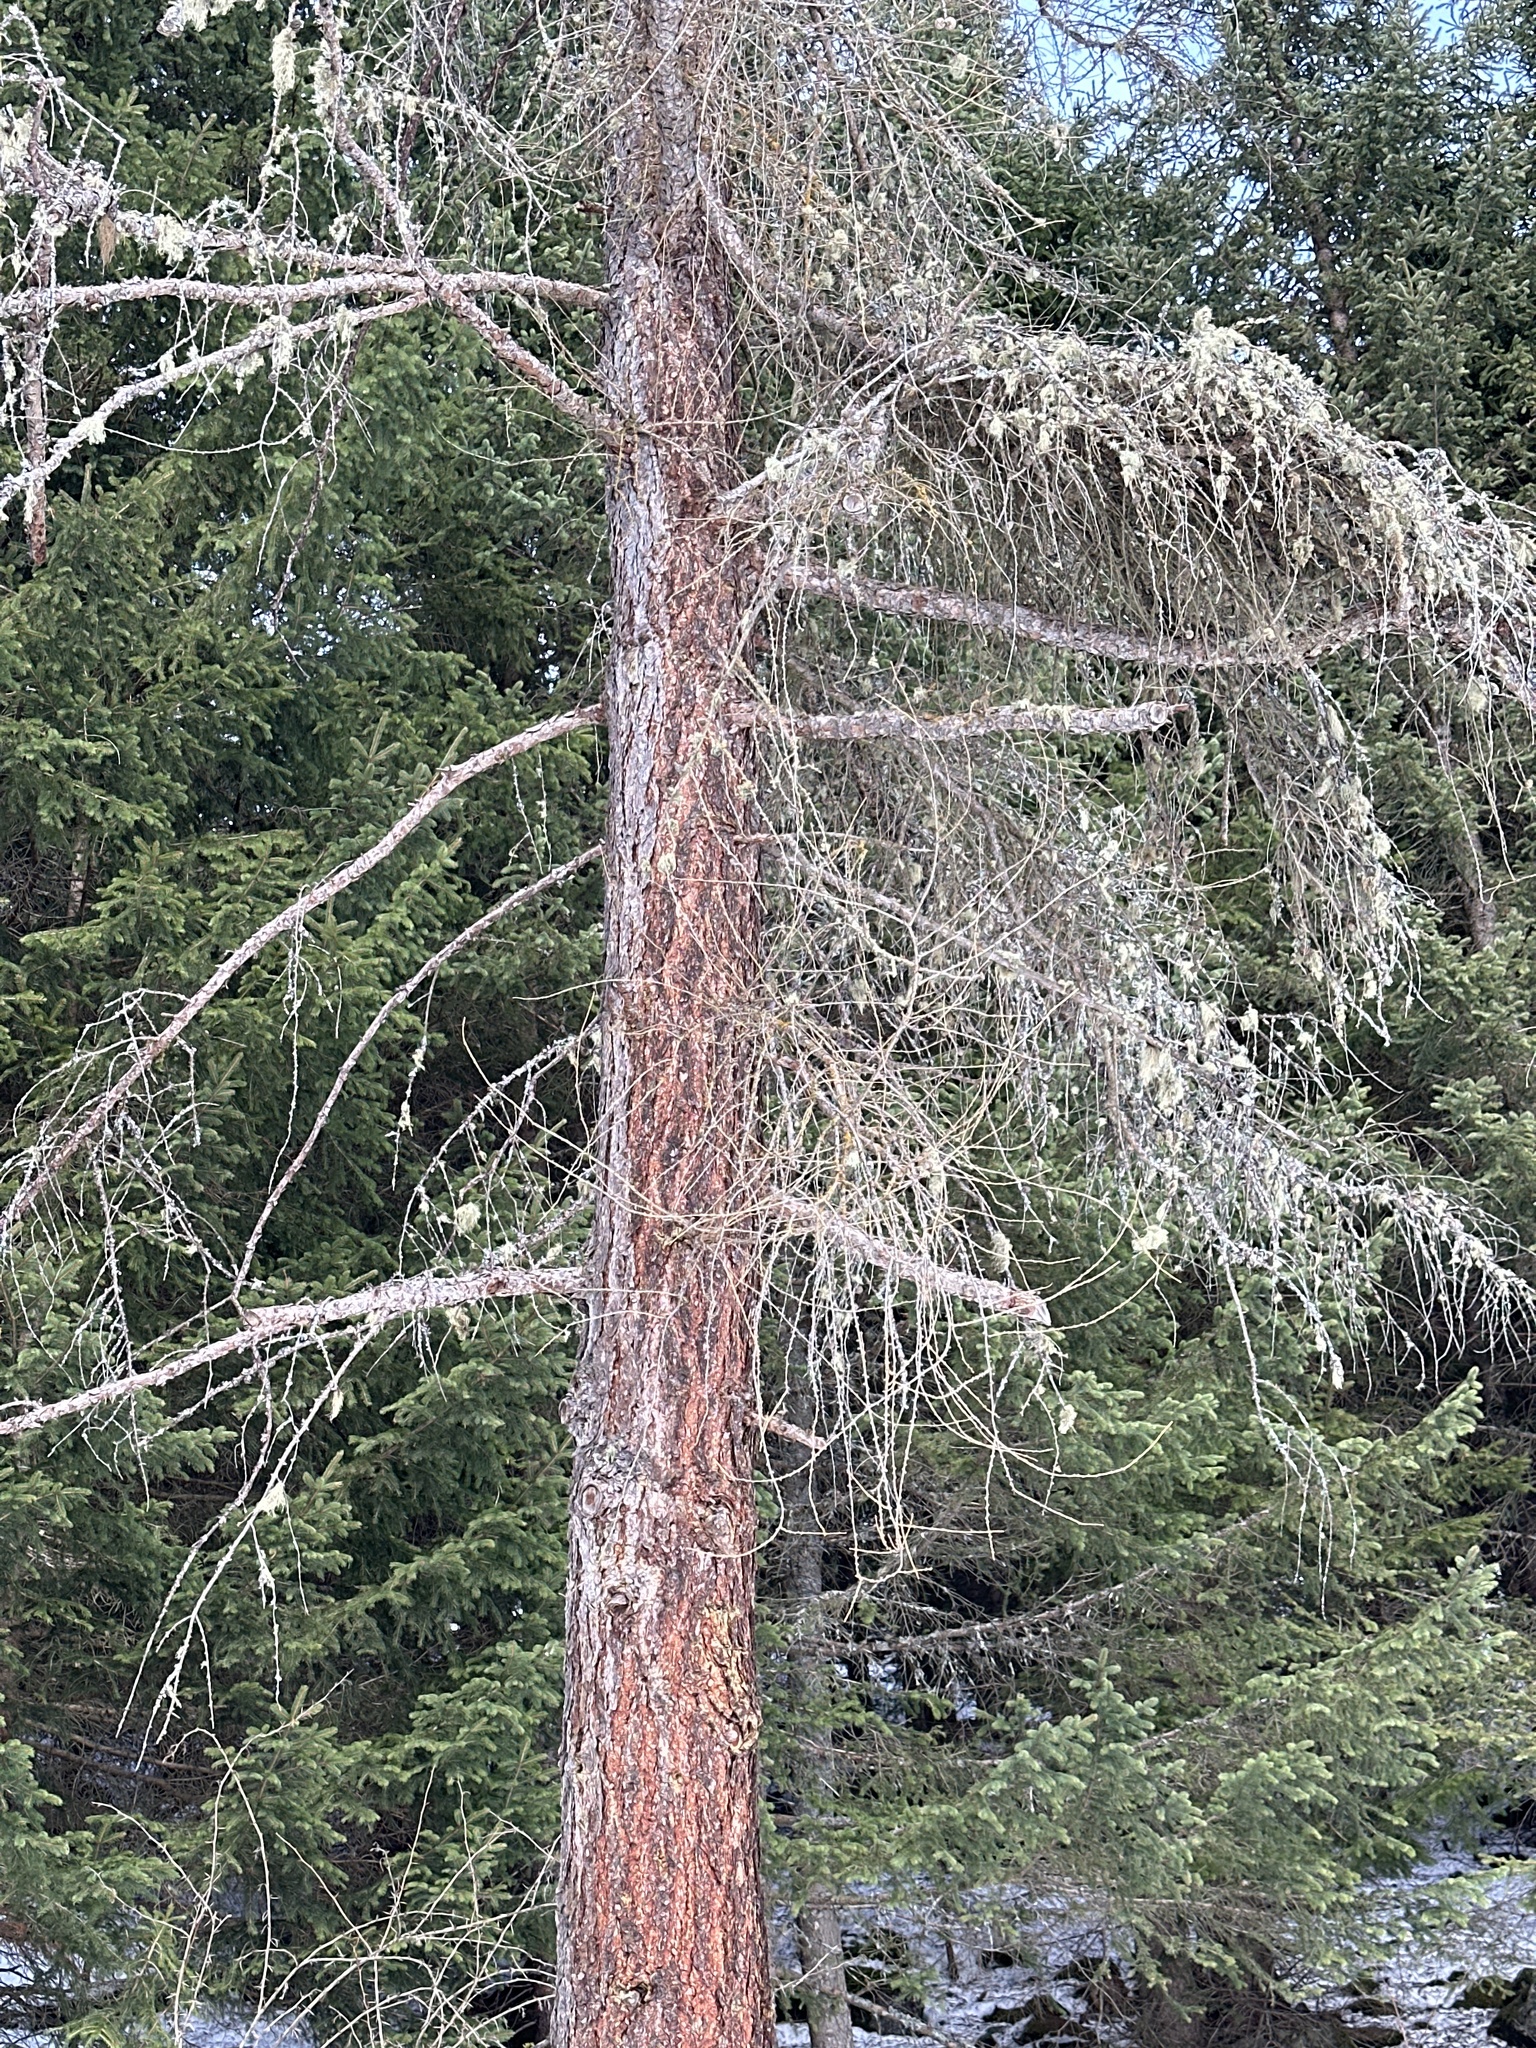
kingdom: Plantae
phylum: Tracheophyta
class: Pinopsida
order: Pinales
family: Pinaceae
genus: Larix
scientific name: Larix decidua
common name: European larch
